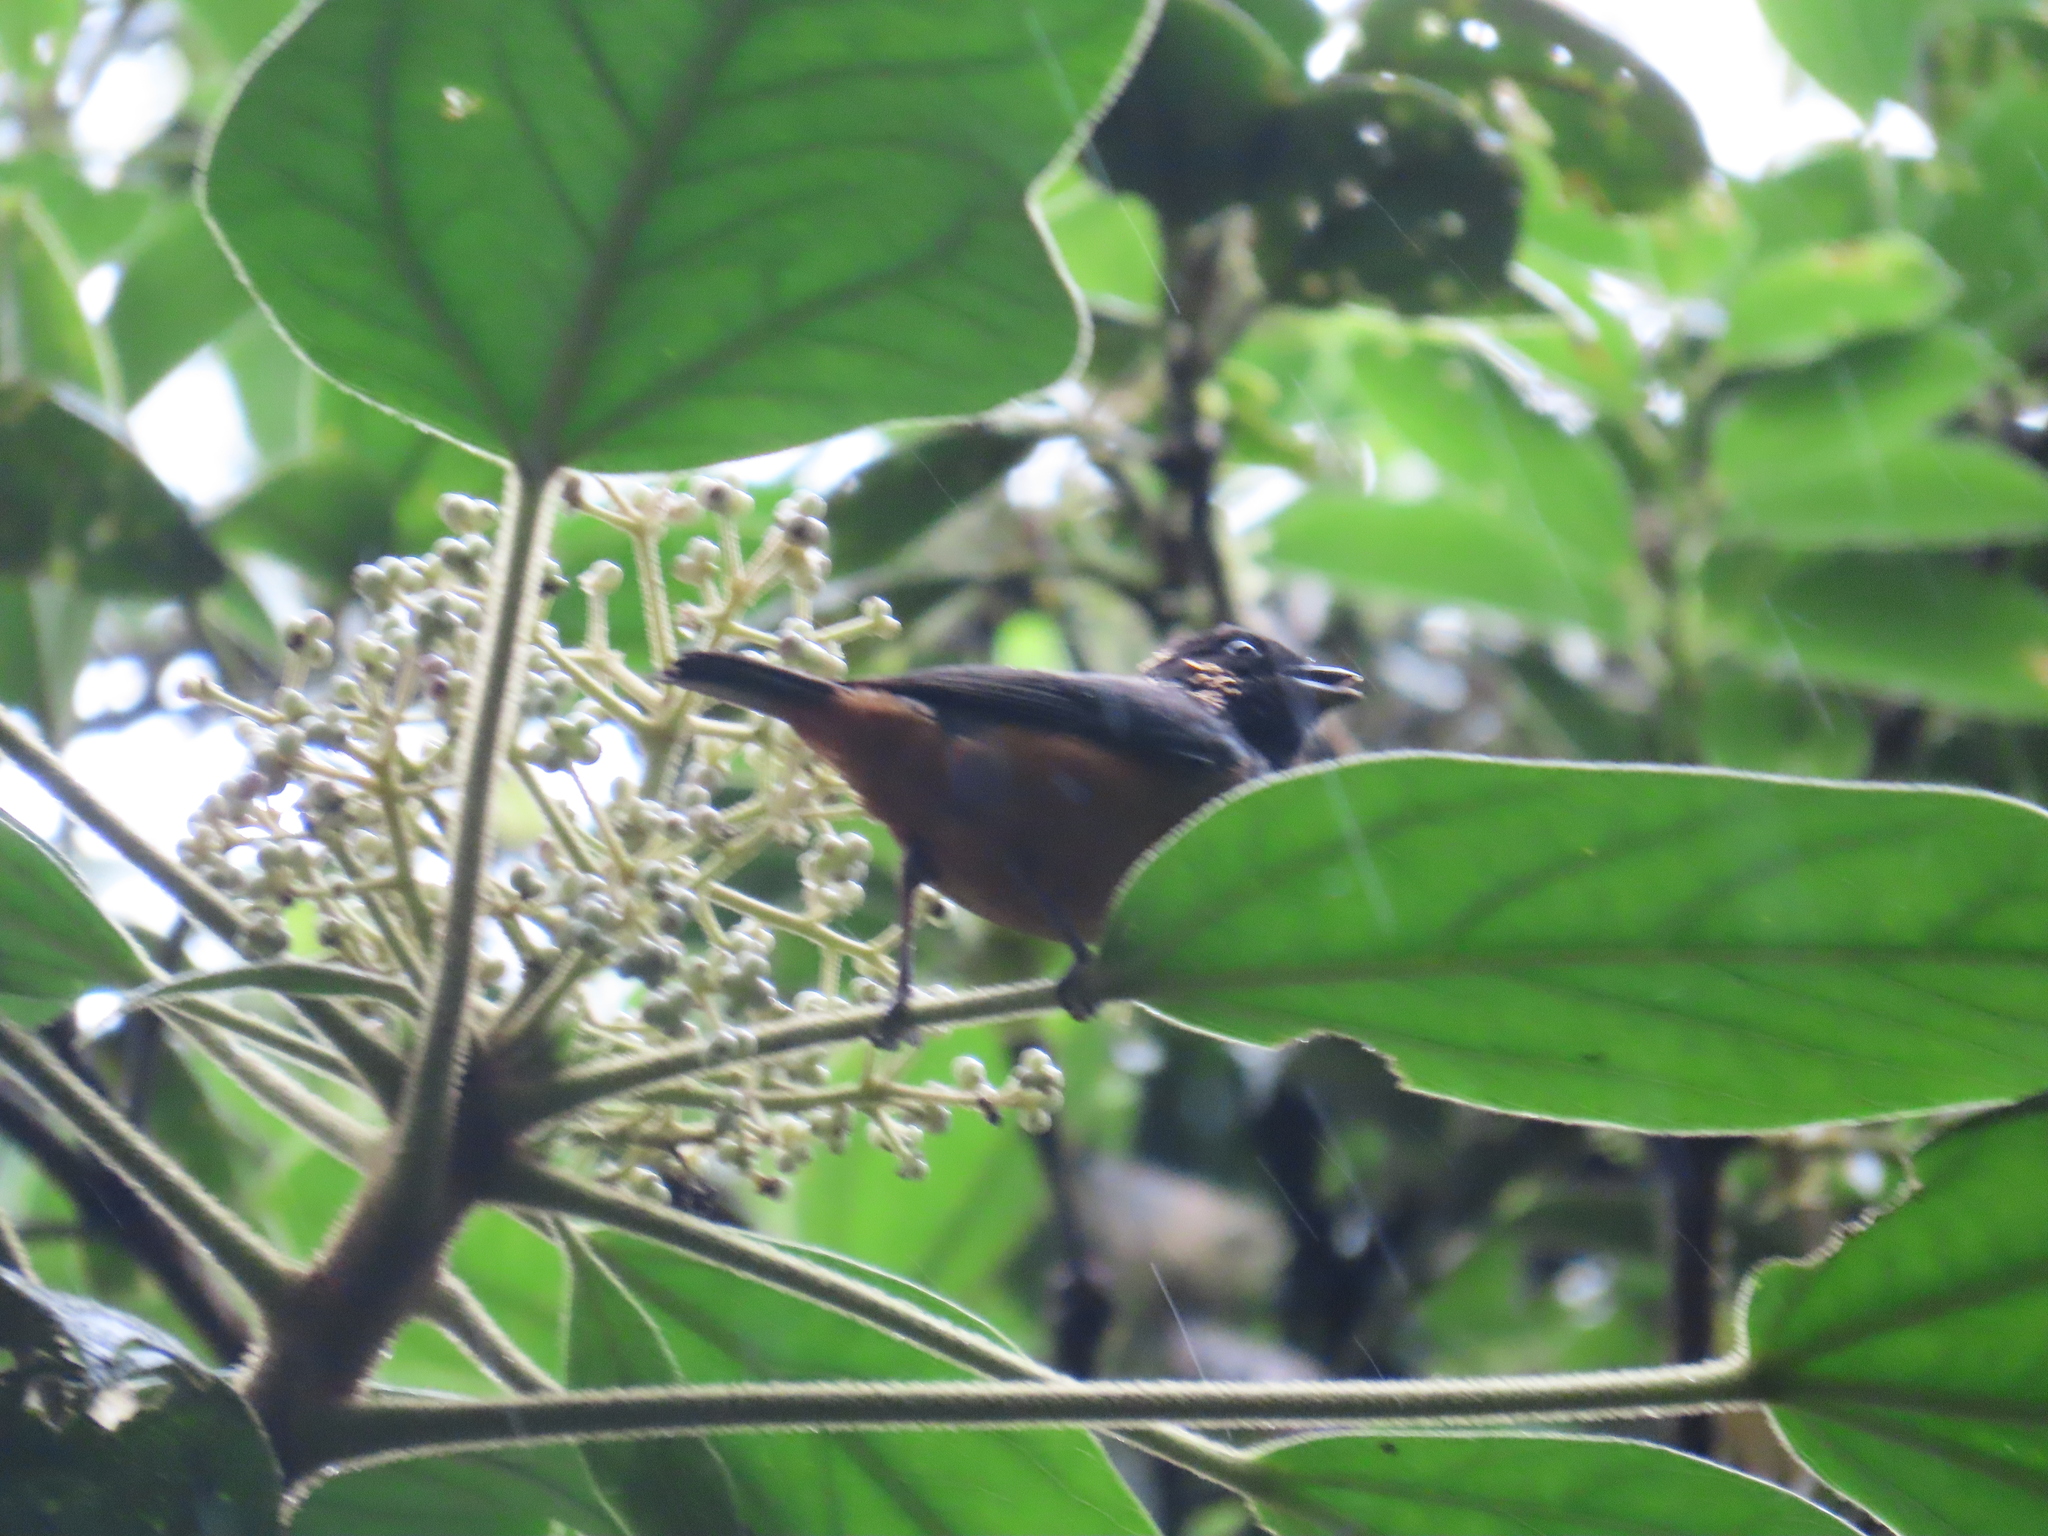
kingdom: Animalia
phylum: Chordata
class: Aves
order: Passeriformes
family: Thraupidae
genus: Tangara
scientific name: Tangara dowii
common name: Spangle-cheeked tanager
